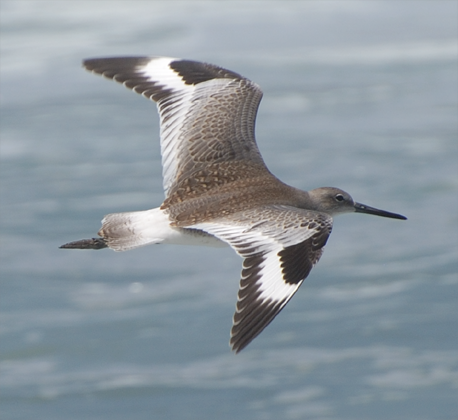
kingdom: Animalia
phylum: Chordata
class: Aves
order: Charadriiformes
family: Scolopacidae
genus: Tringa
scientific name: Tringa semipalmata
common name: Willet
